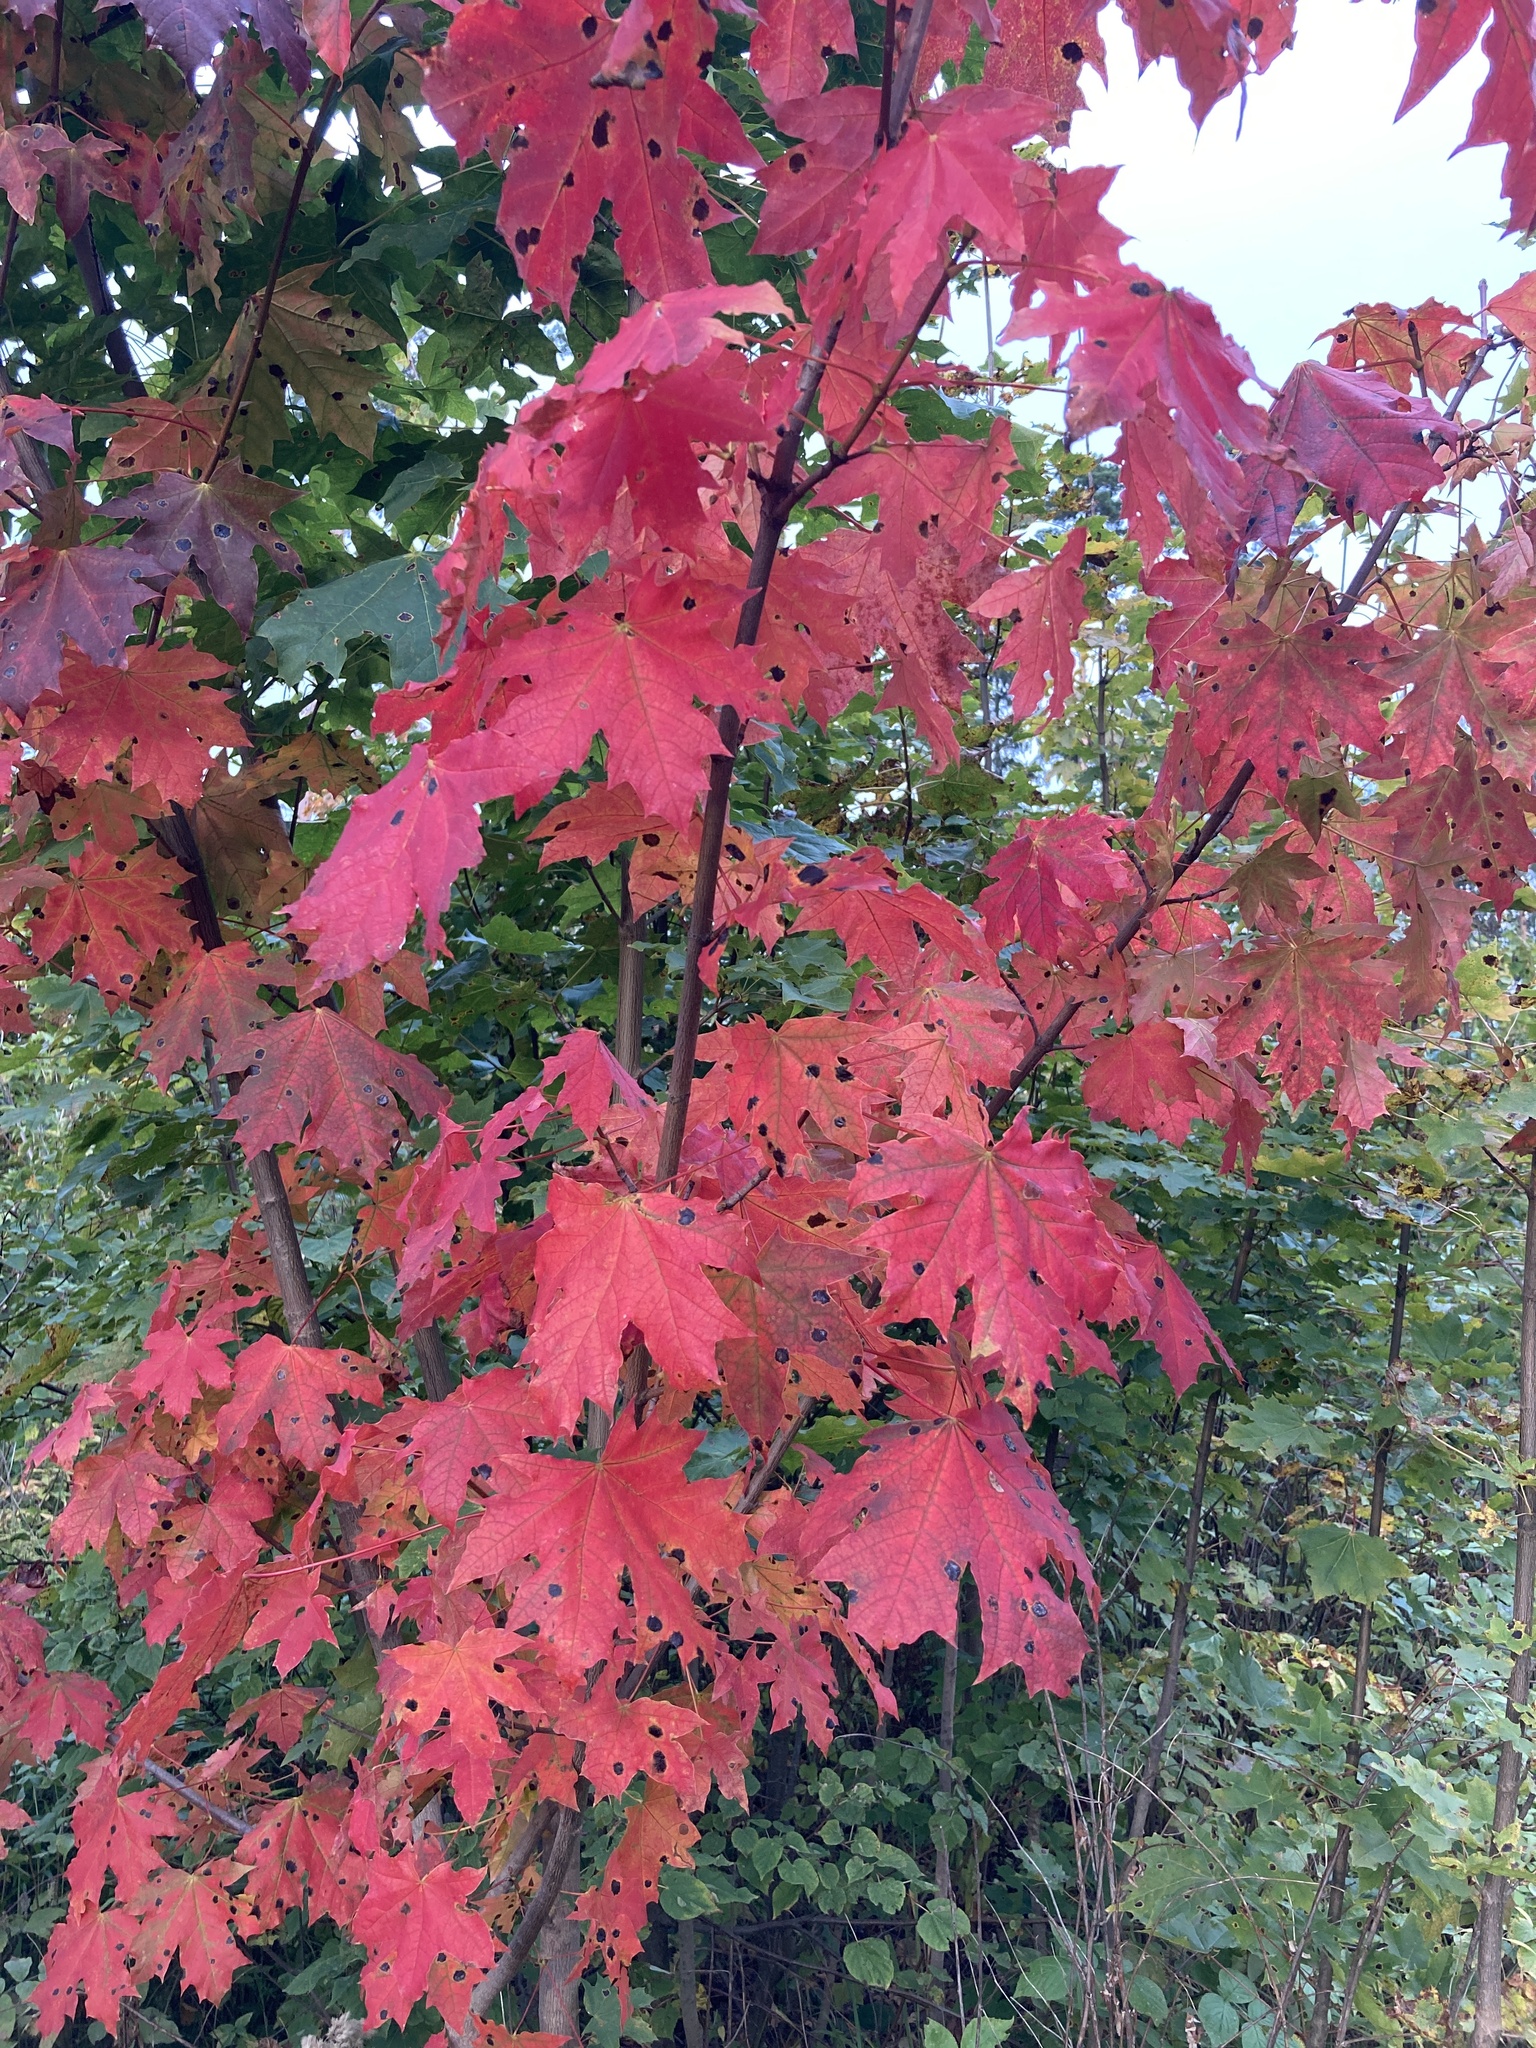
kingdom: Plantae
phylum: Tracheophyta
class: Magnoliopsida
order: Sapindales
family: Sapindaceae
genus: Acer
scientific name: Acer platanoides
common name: Norway maple
